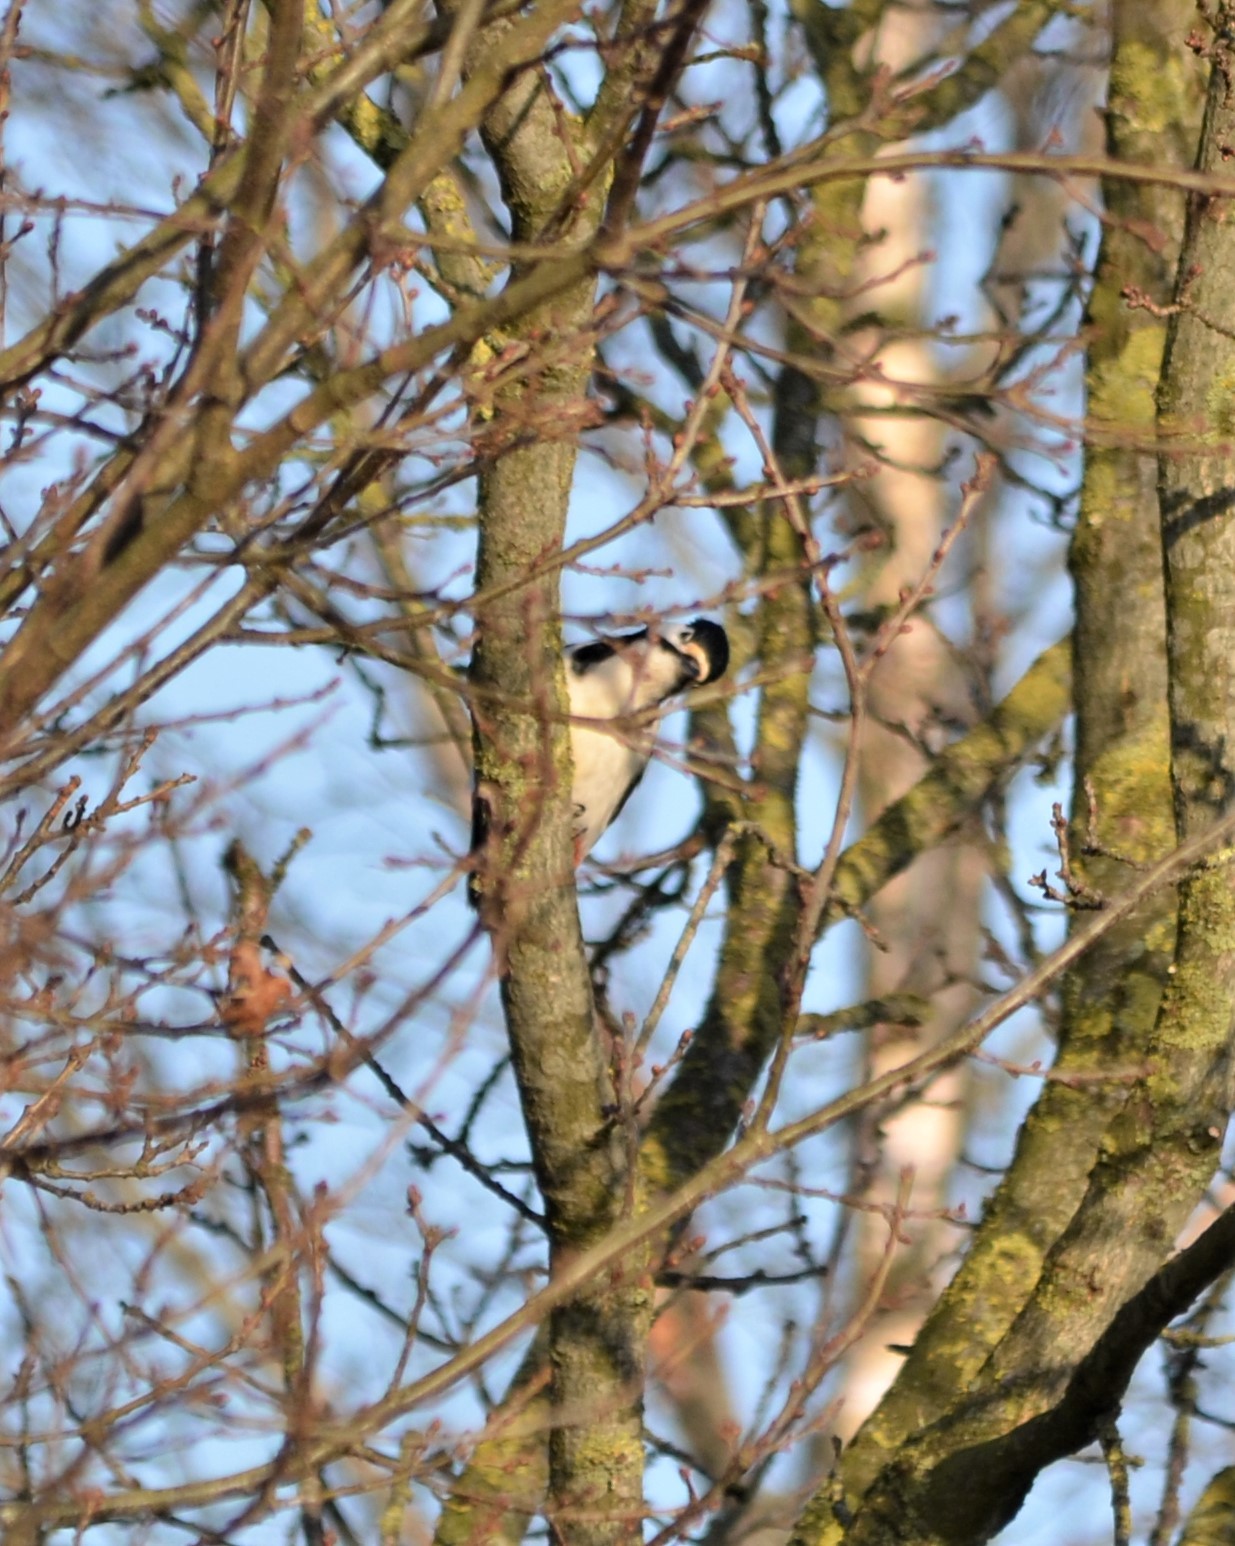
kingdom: Animalia
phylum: Chordata
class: Aves
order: Piciformes
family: Picidae
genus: Dendrocopos
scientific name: Dendrocopos major
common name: Great spotted woodpecker
